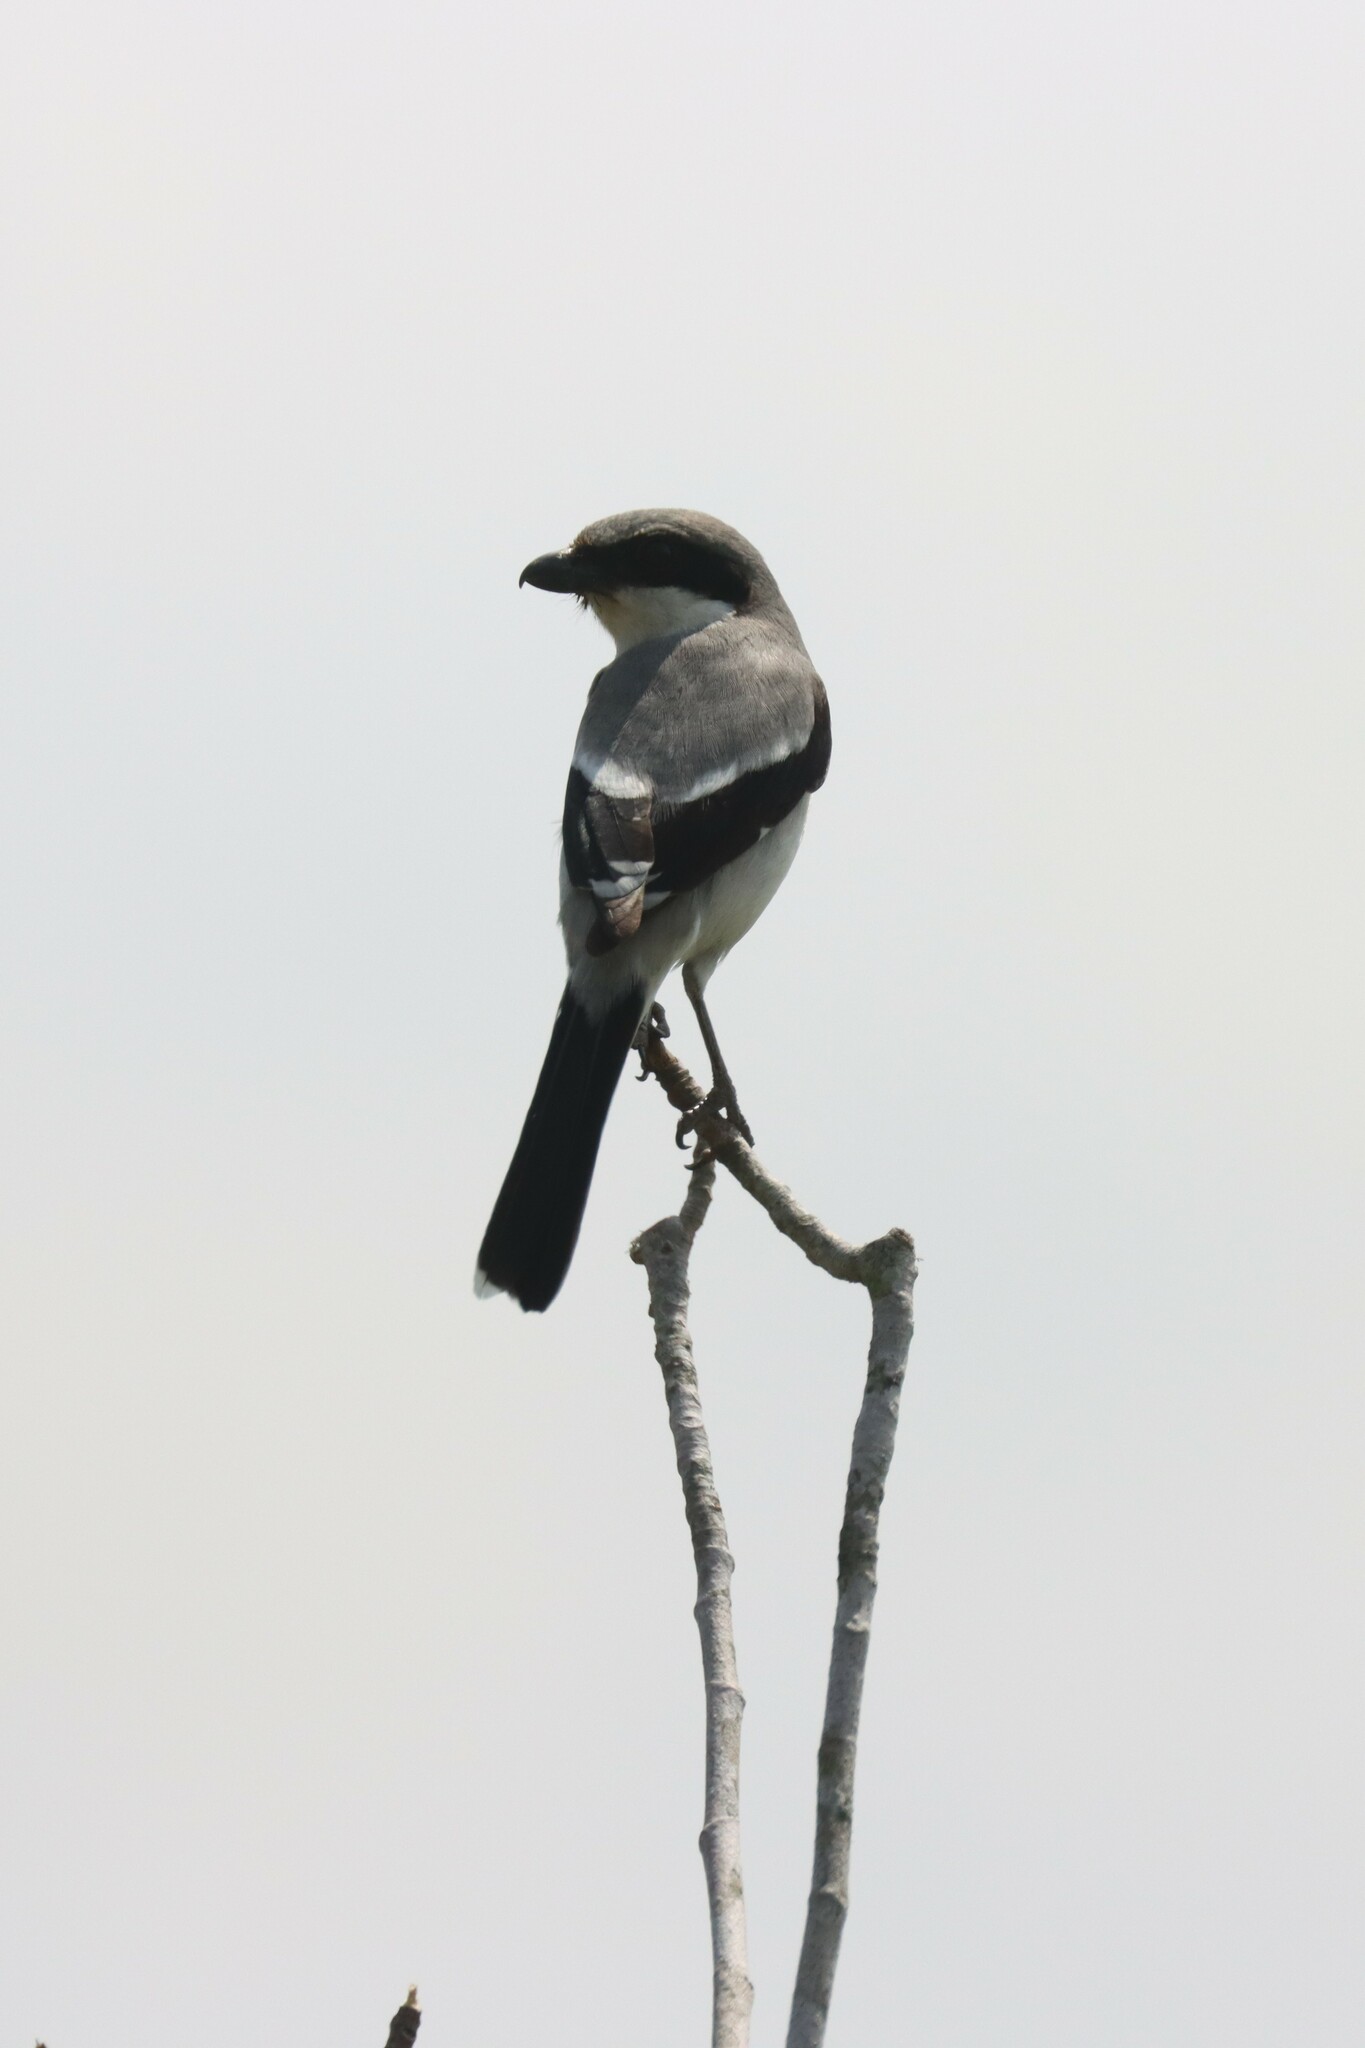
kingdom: Animalia
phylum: Chordata
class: Aves
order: Passeriformes
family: Laniidae
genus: Lanius
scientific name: Lanius ludovicianus
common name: Loggerhead shrike
